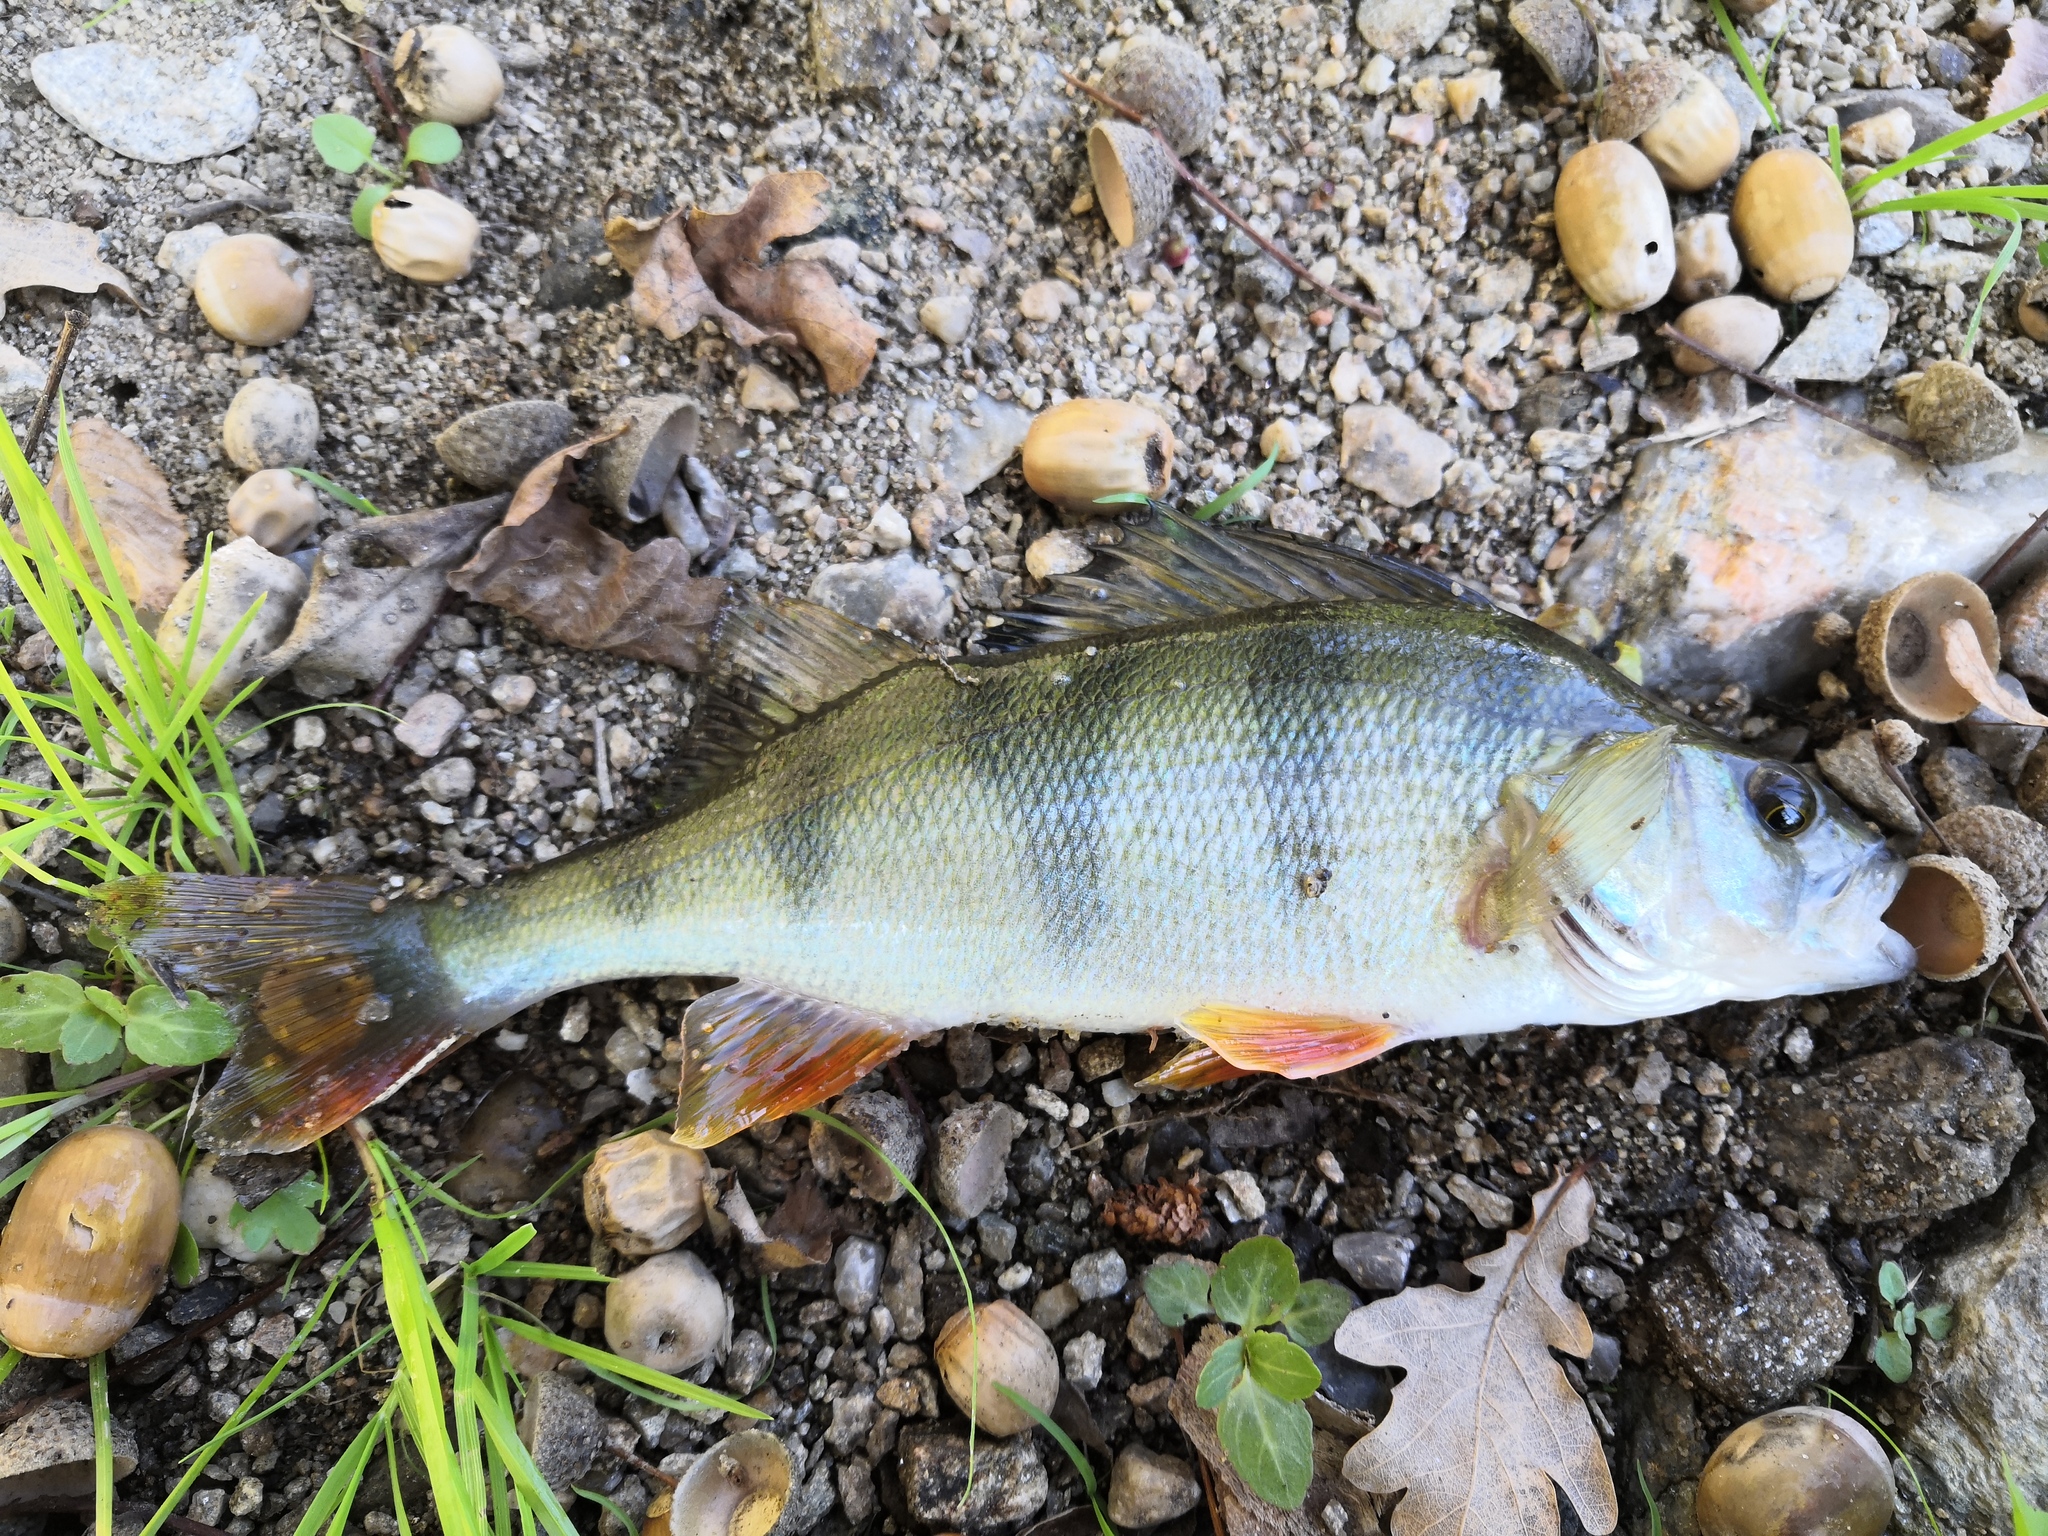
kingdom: Animalia
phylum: Chordata
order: Perciformes
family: Percidae
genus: Perca
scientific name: Perca fluviatilis
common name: Perch
